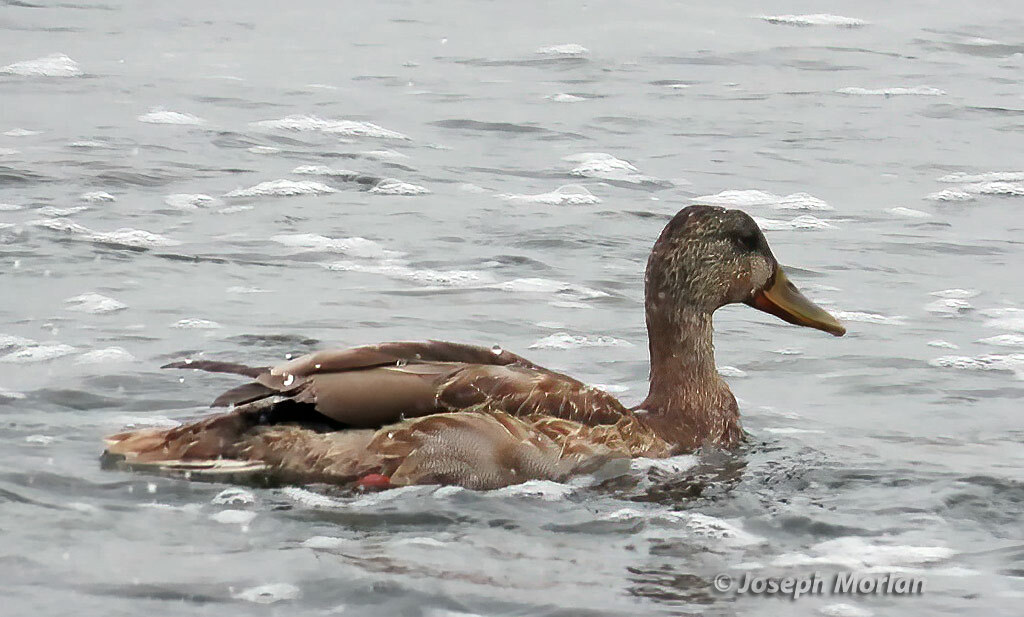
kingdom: Animalia
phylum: Chordata
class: Aves
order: Anseriformes
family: Anatidae
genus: Anas
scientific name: Anas platyrhynchos
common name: Mallard
